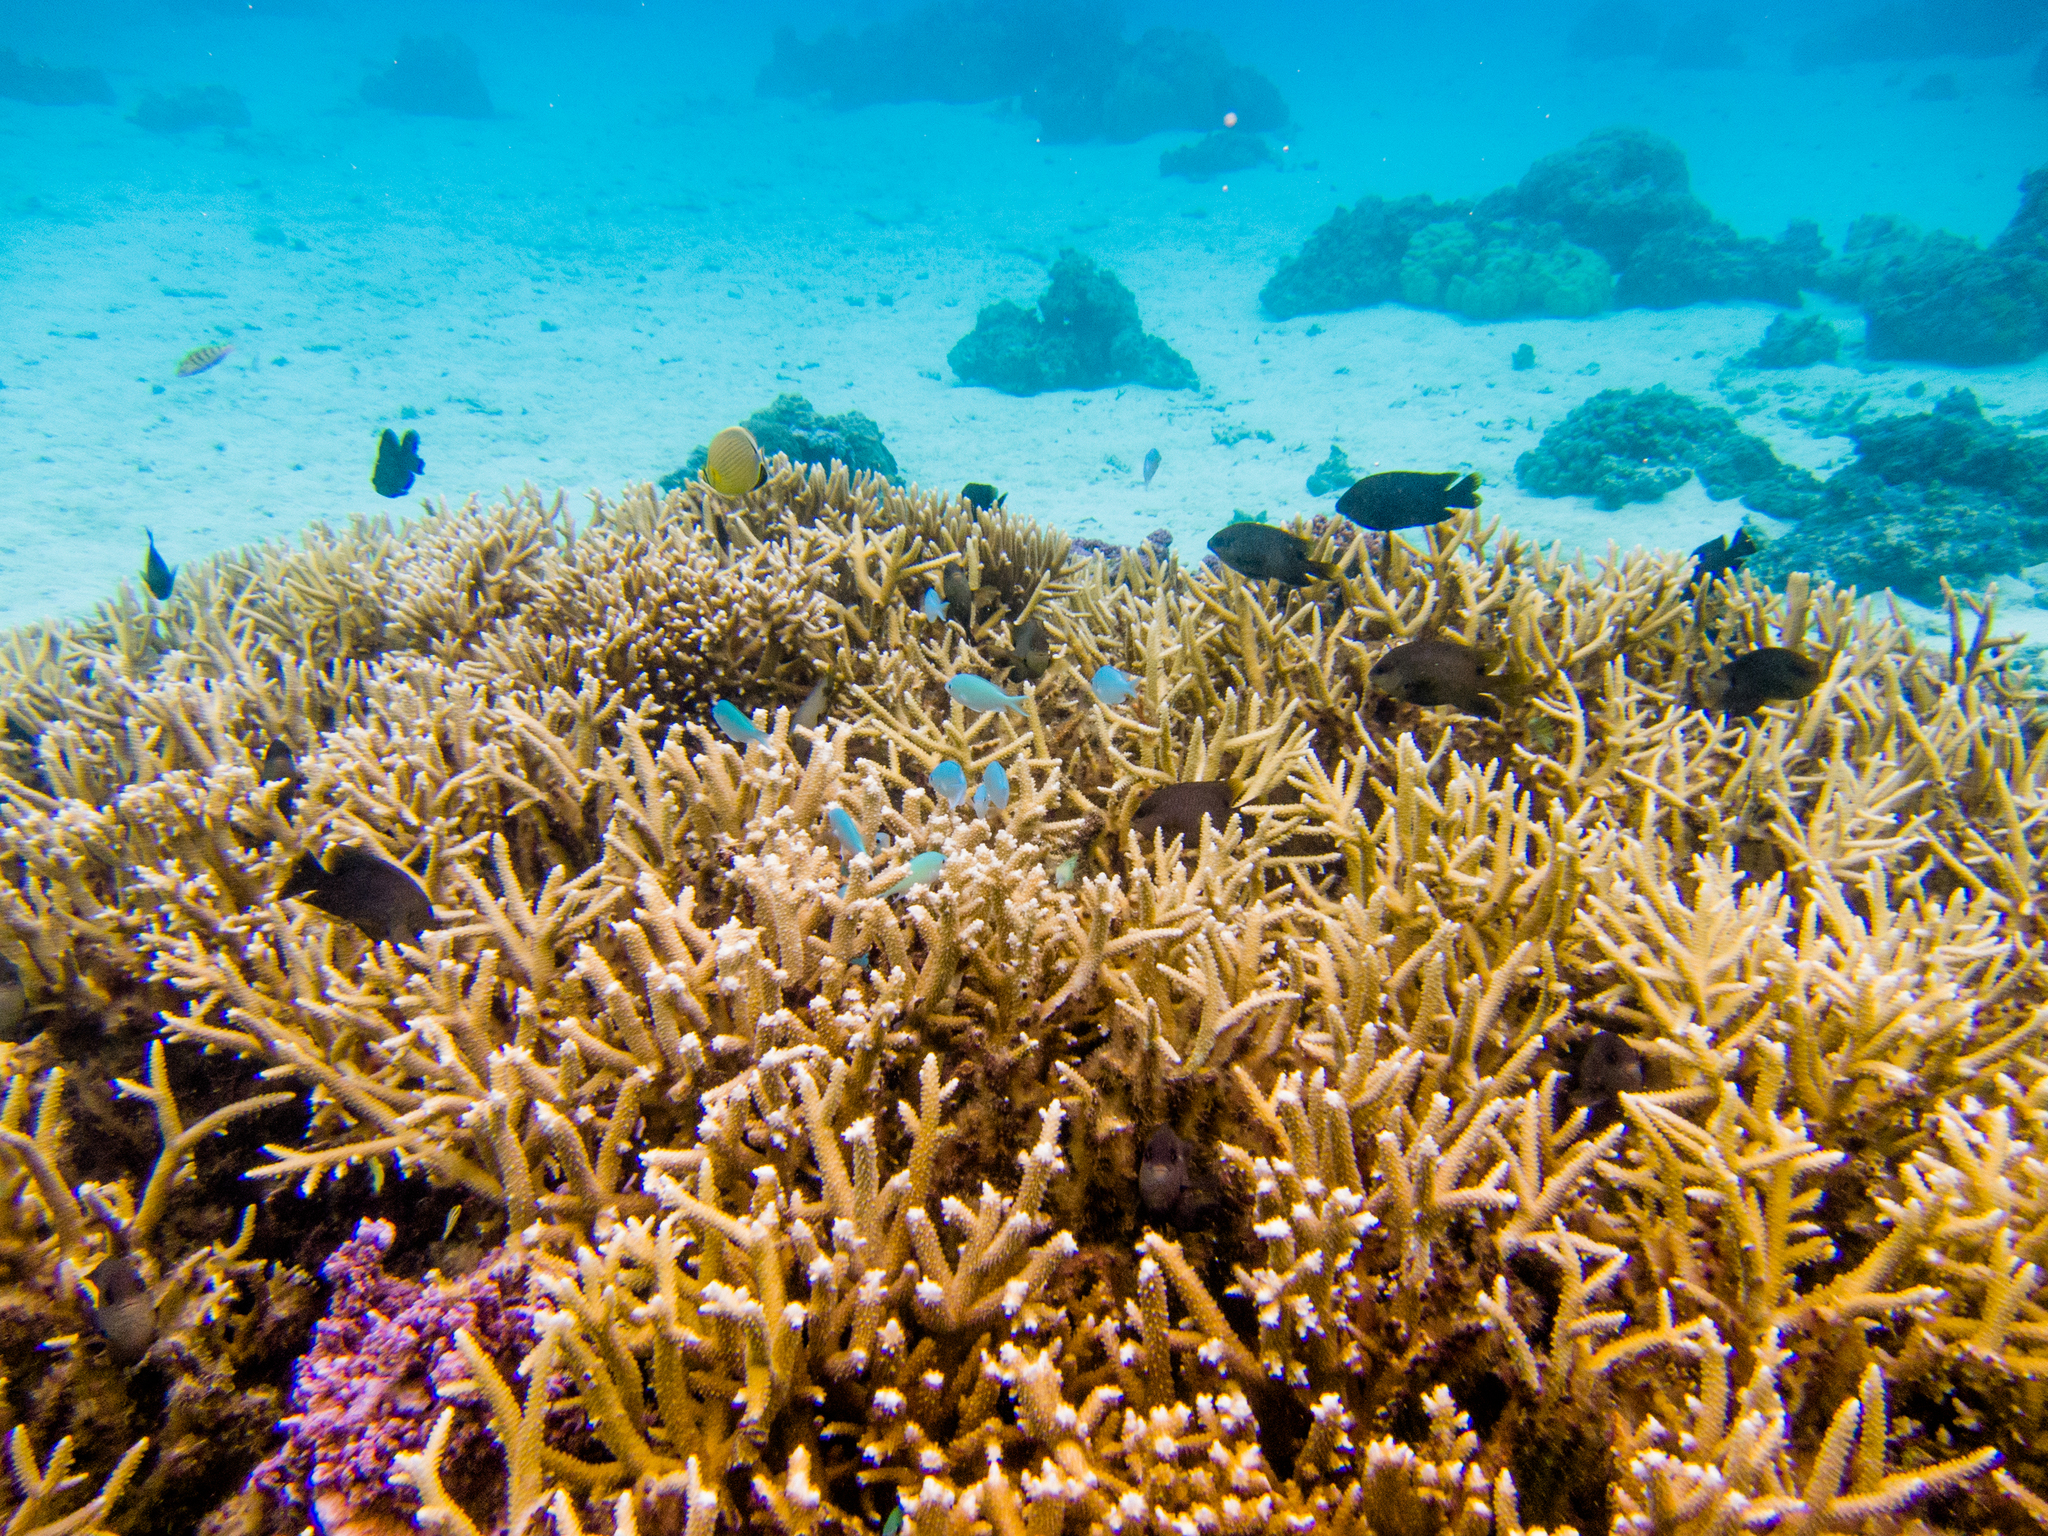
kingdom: Animalia
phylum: Chordata
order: Perciformes
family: Labridae
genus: Thalassoma
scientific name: Thalassoma hardwicke
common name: Sixbar wrasse
